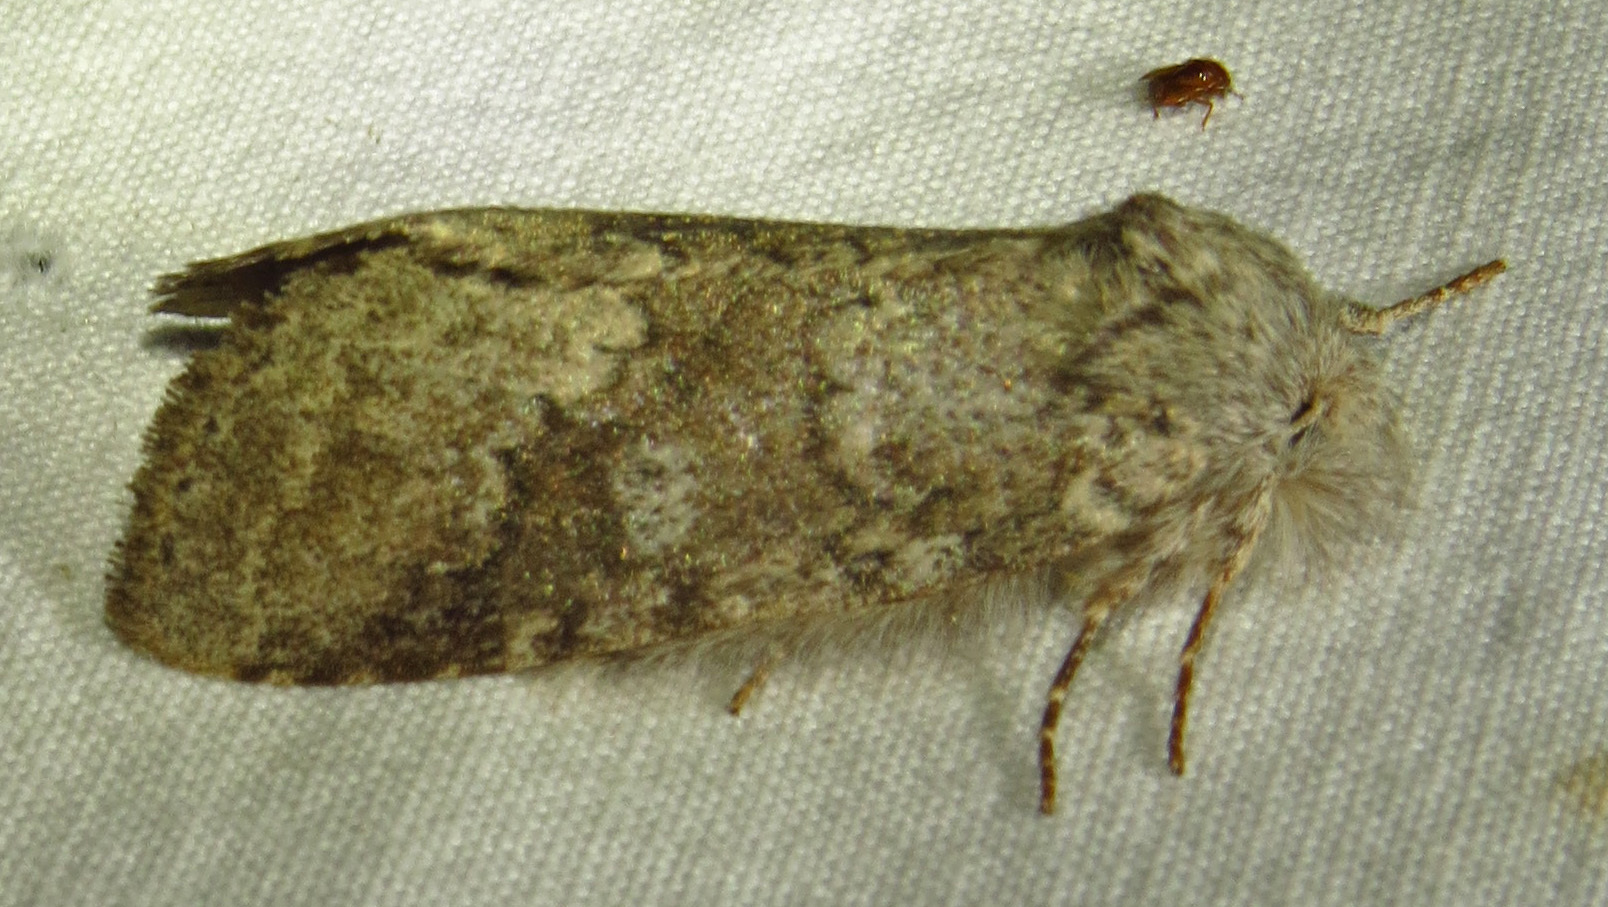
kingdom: Animalia
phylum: Arthropoda
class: Insecta
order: Lepidoptera
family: Notodontidae
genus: Lochmaeus
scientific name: Lochmaeus manteo
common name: Variable oakleaf caterpillar moth
